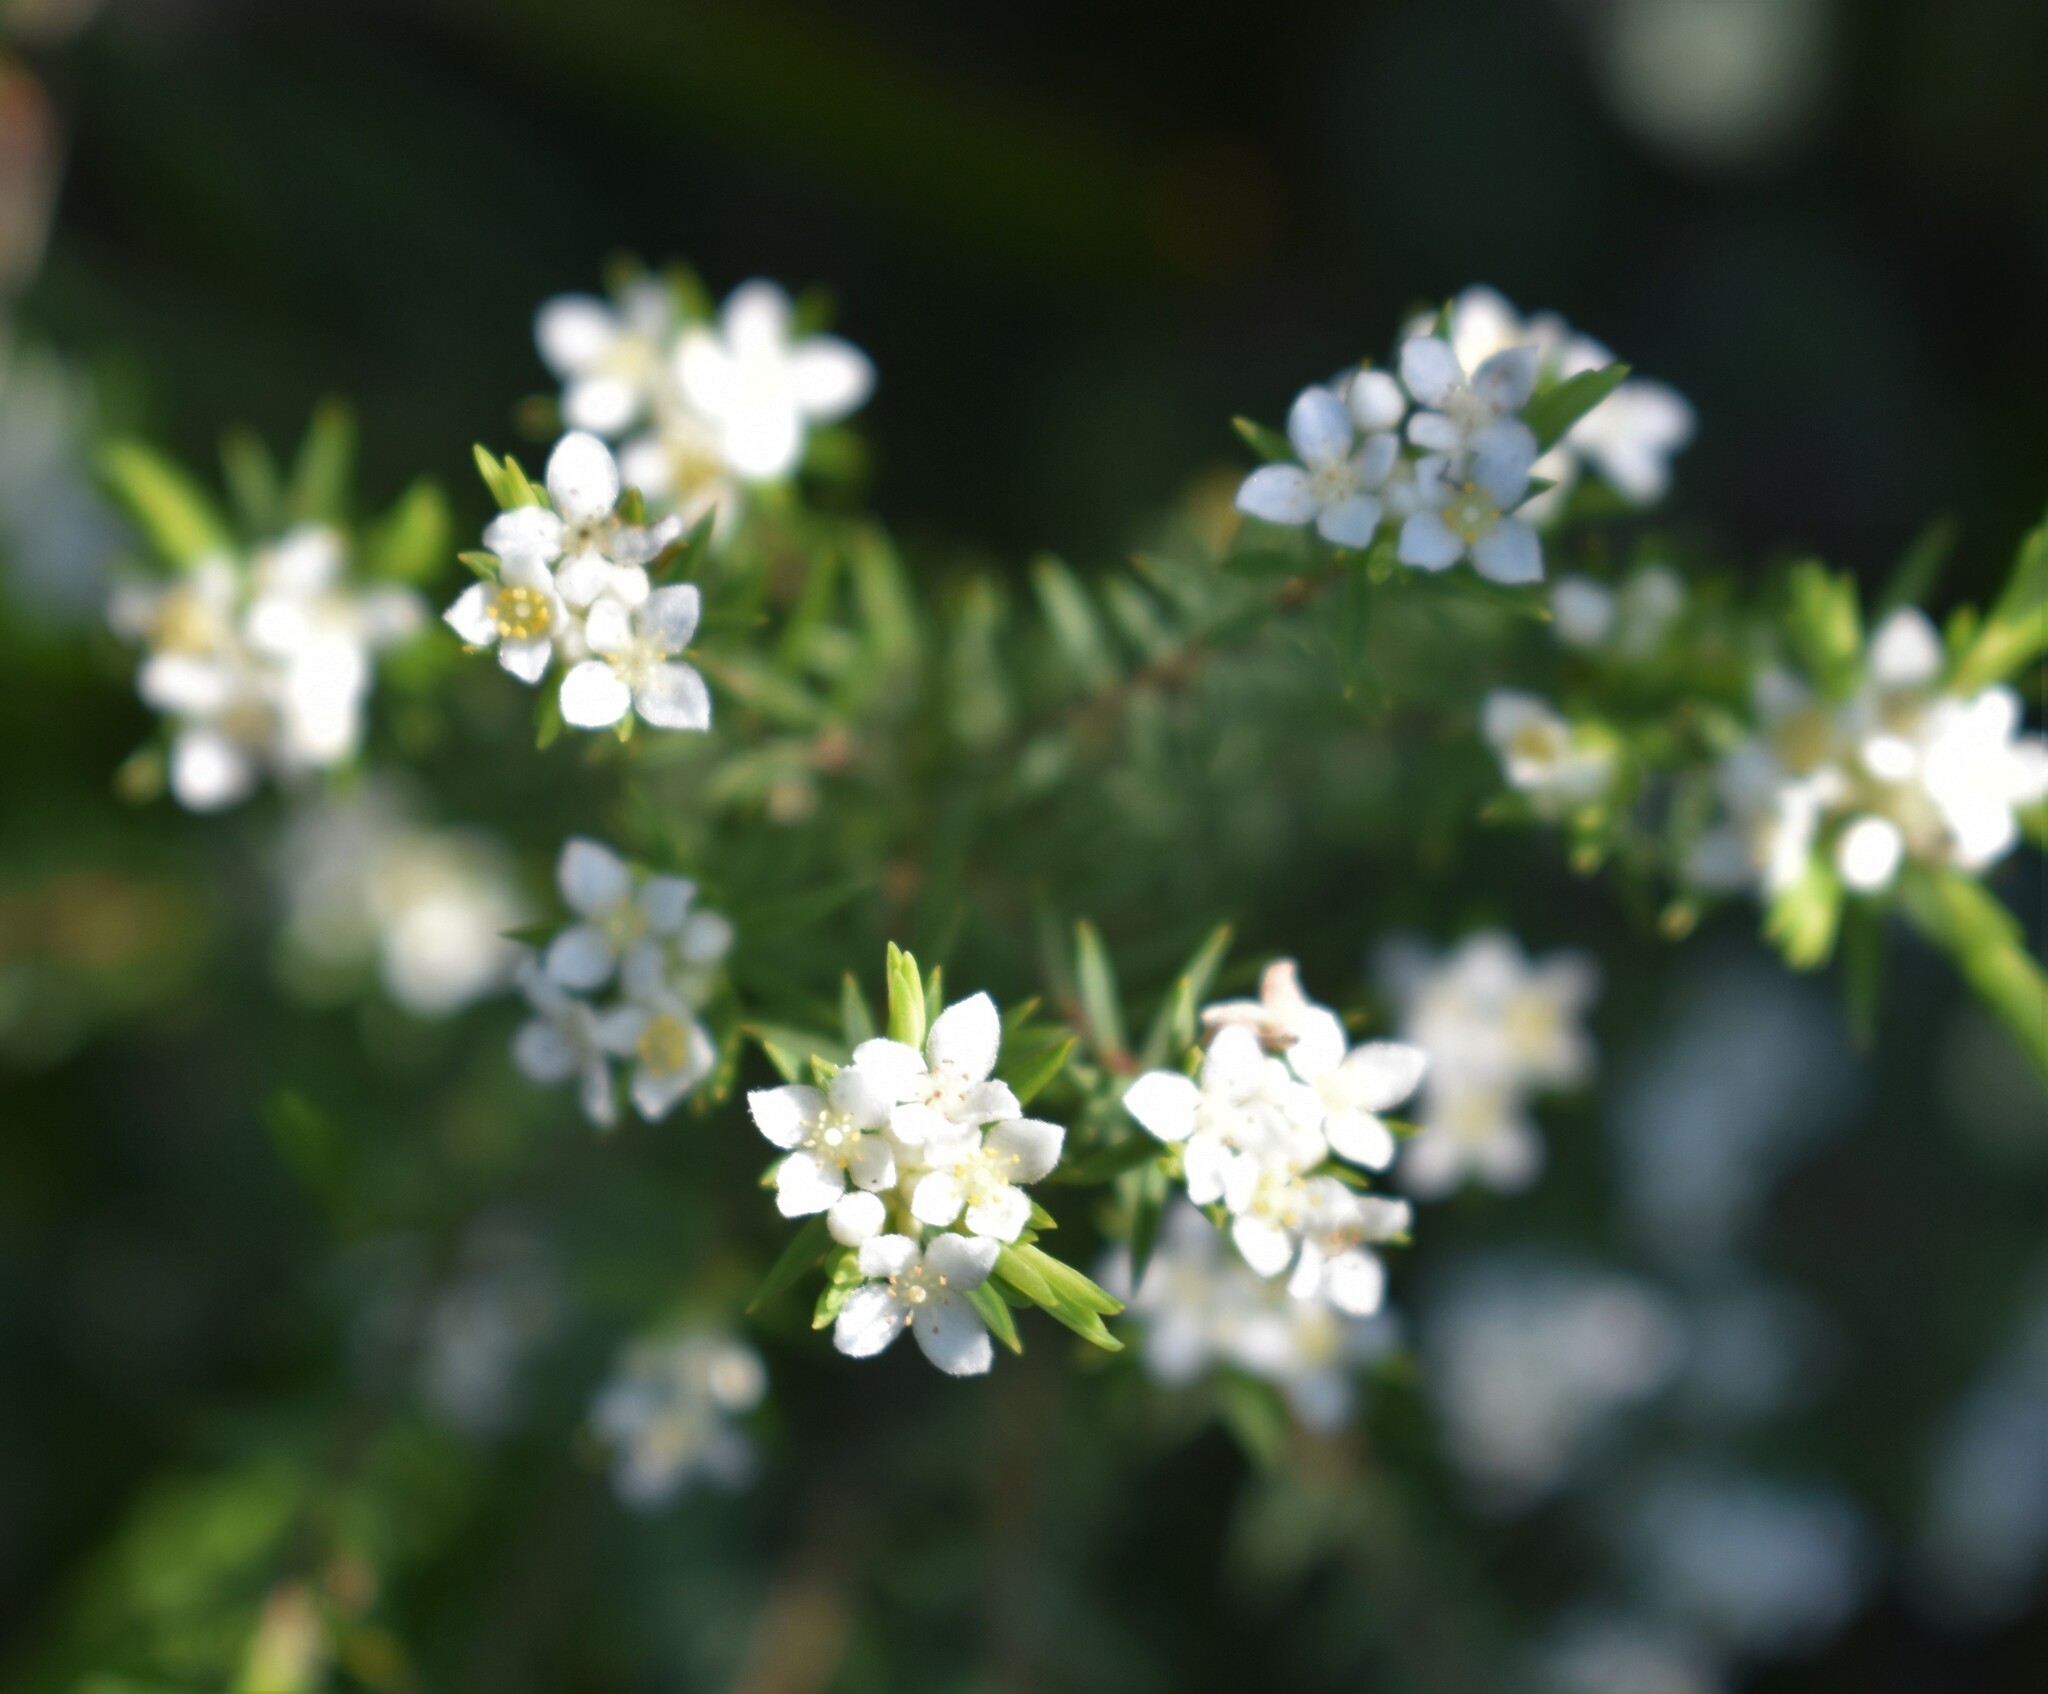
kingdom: Plantae
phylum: Tracheophyta
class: Magnoliopsida
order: Malvales
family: Thymelaeaceae
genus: Lachnaea
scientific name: Lachnaea diosmoides
